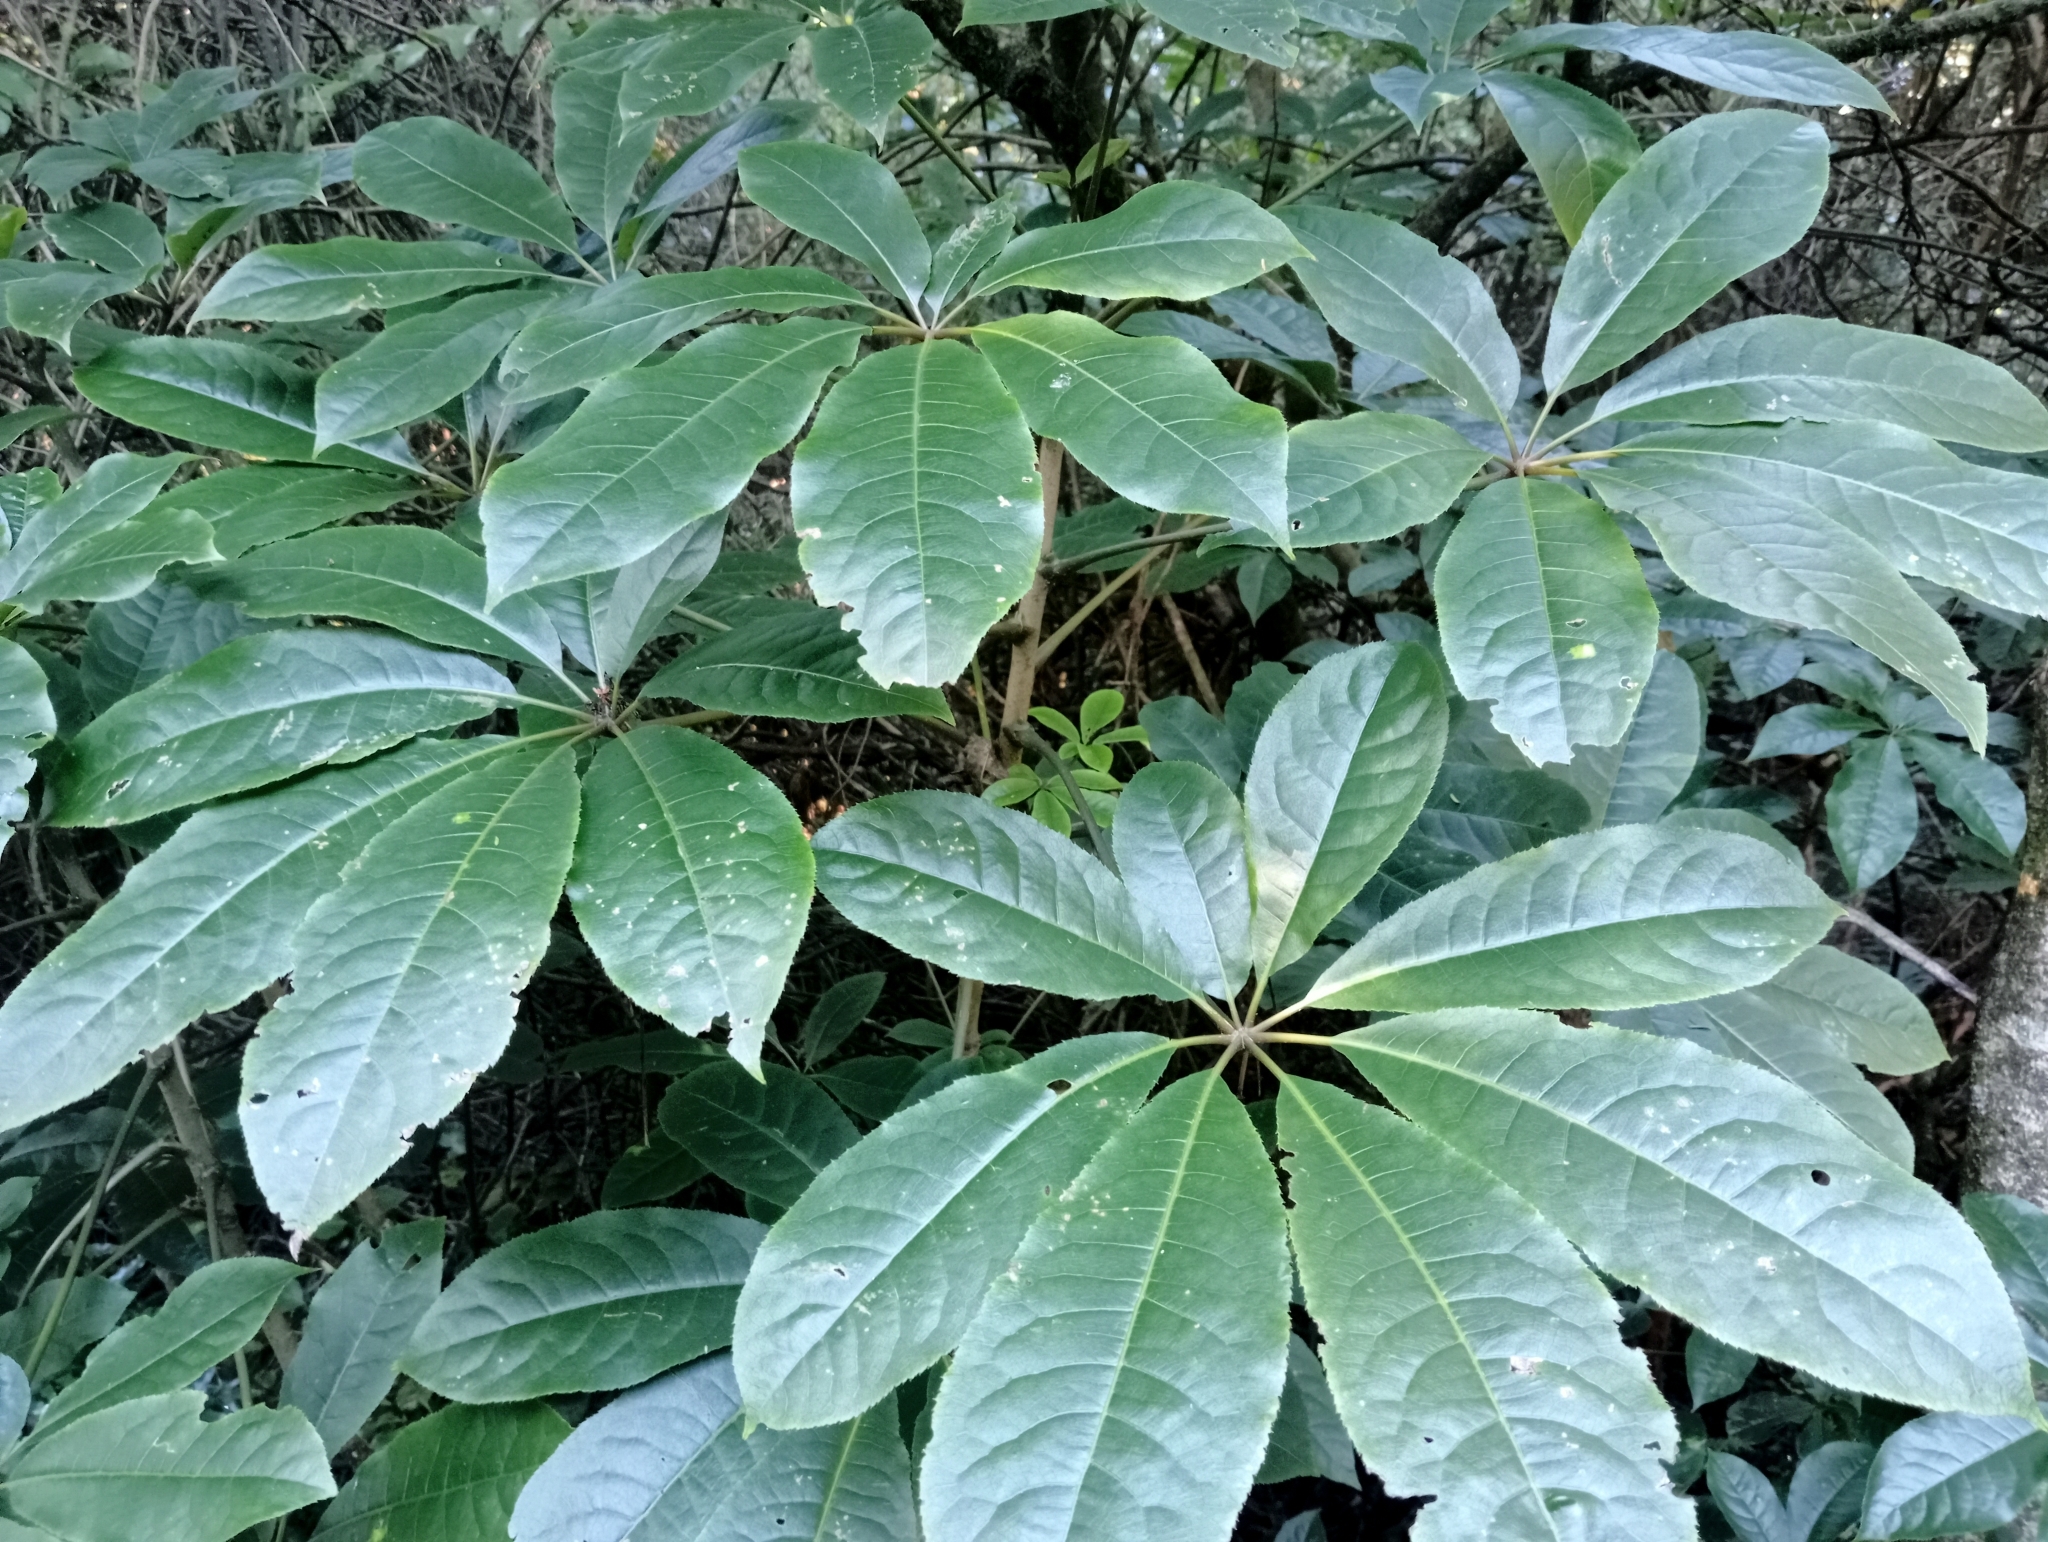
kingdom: Plantae
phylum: Tracheophyta
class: Magnoliopsida
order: Apiales
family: Araliaceae
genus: Schefflera
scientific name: Schefflera digitata
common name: Pate
